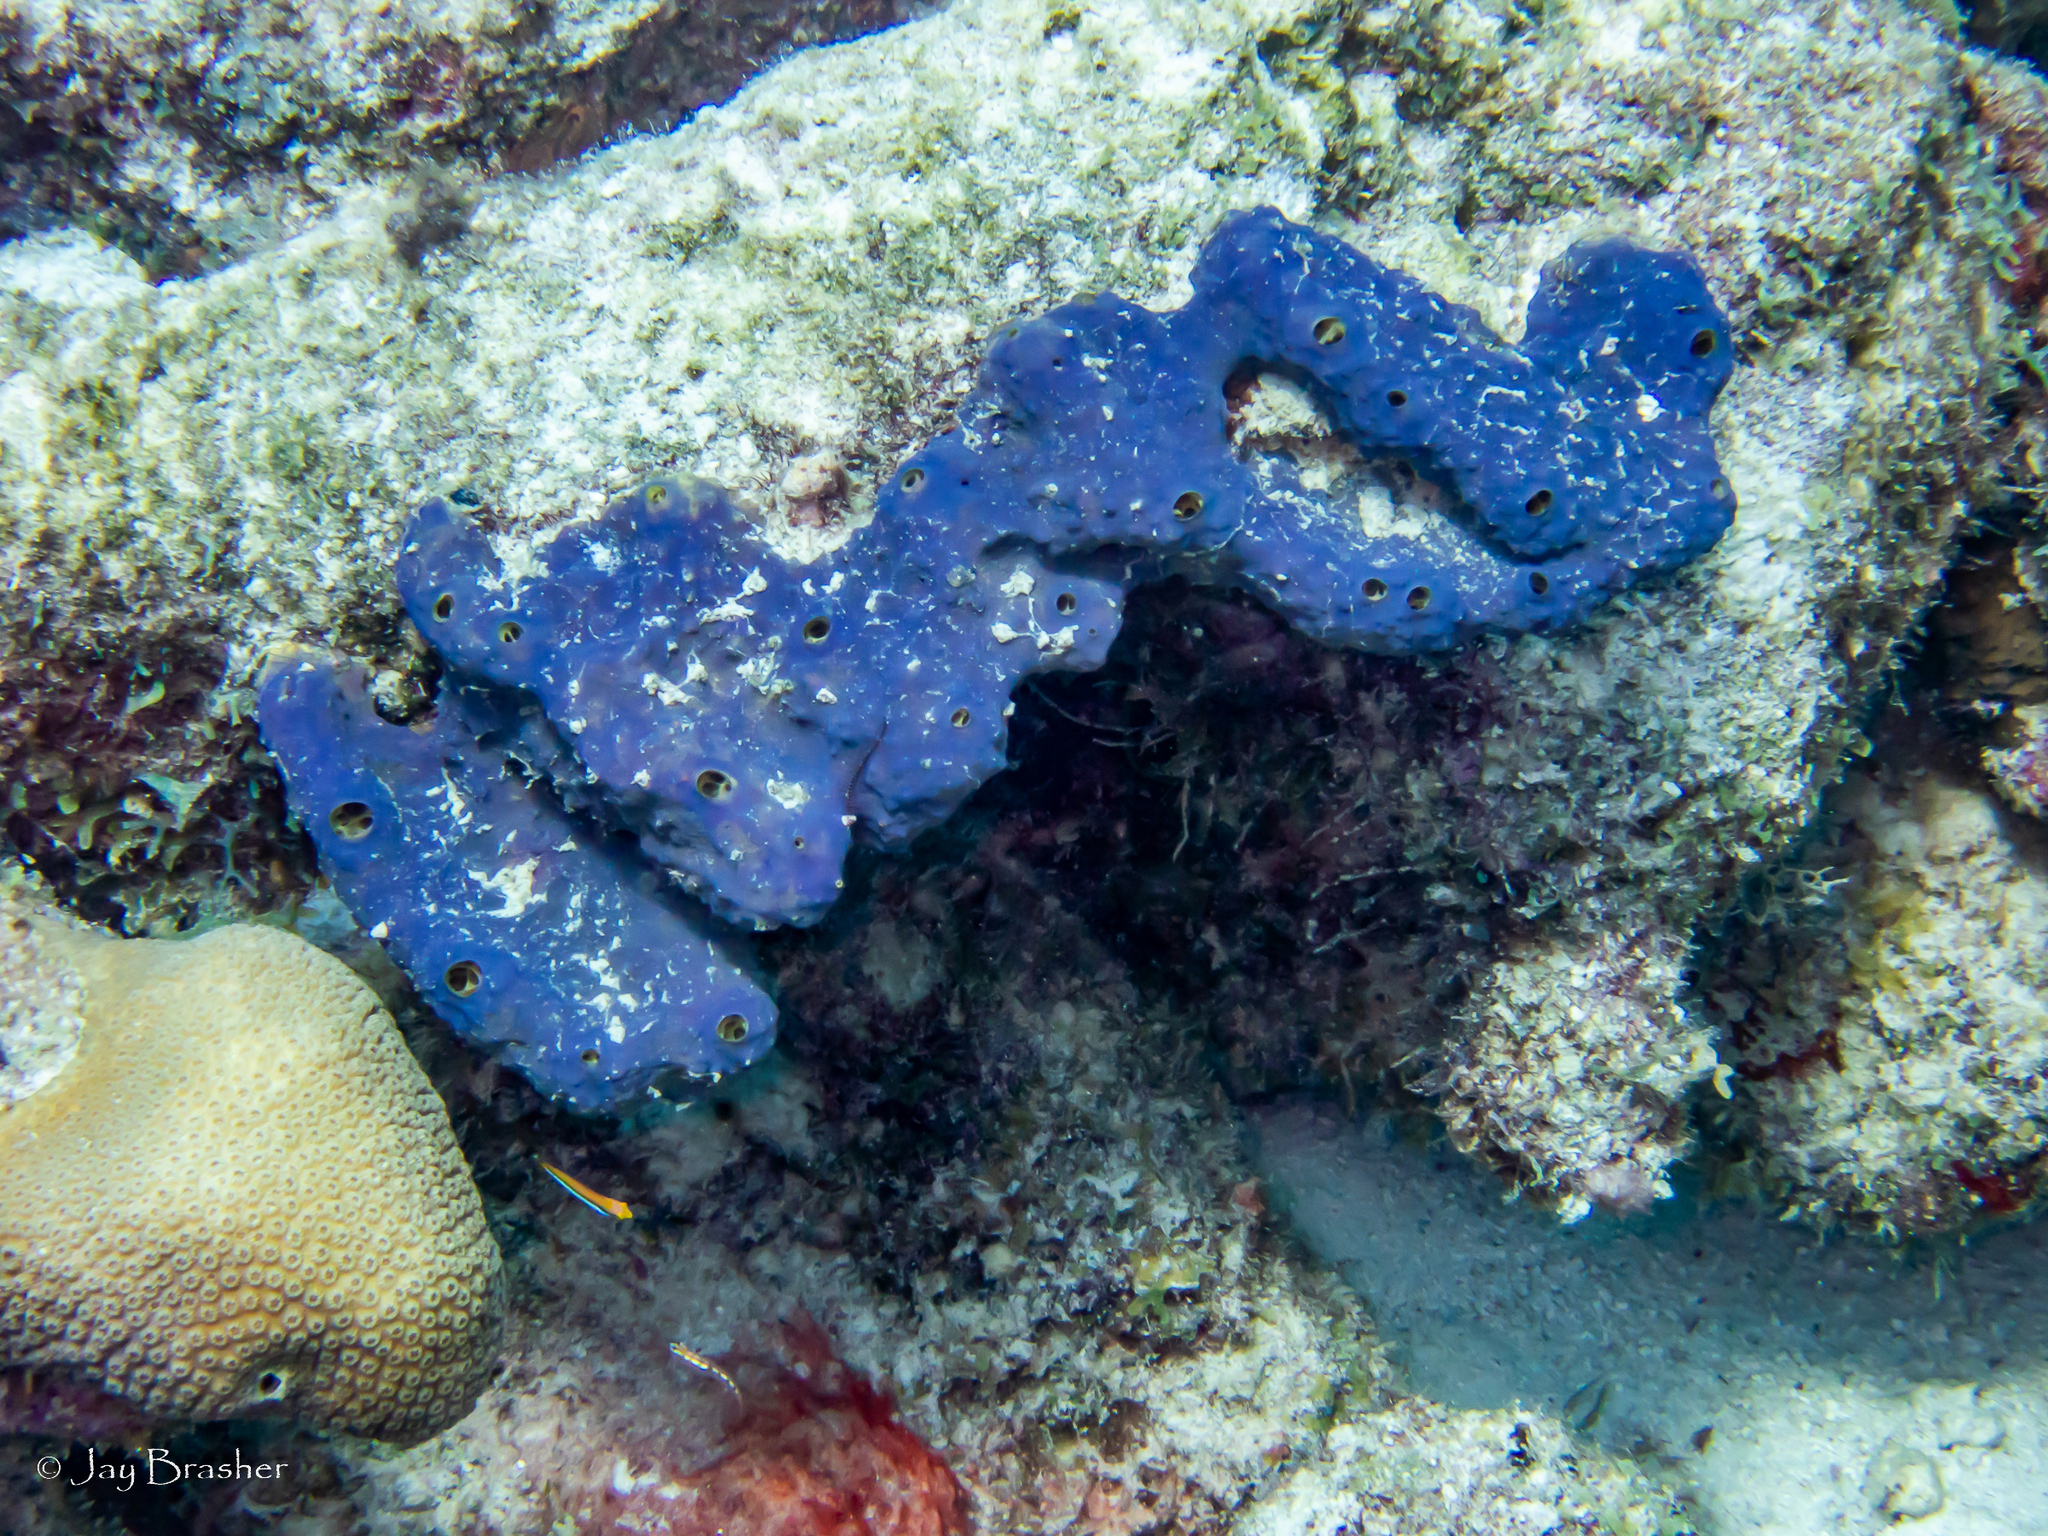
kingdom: Animalia
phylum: Porifera
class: Demospongiae
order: Verongiida
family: Aplysinidae
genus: Aiolochroia
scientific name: Aiolochroia crassa
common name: Branching tube sponge
